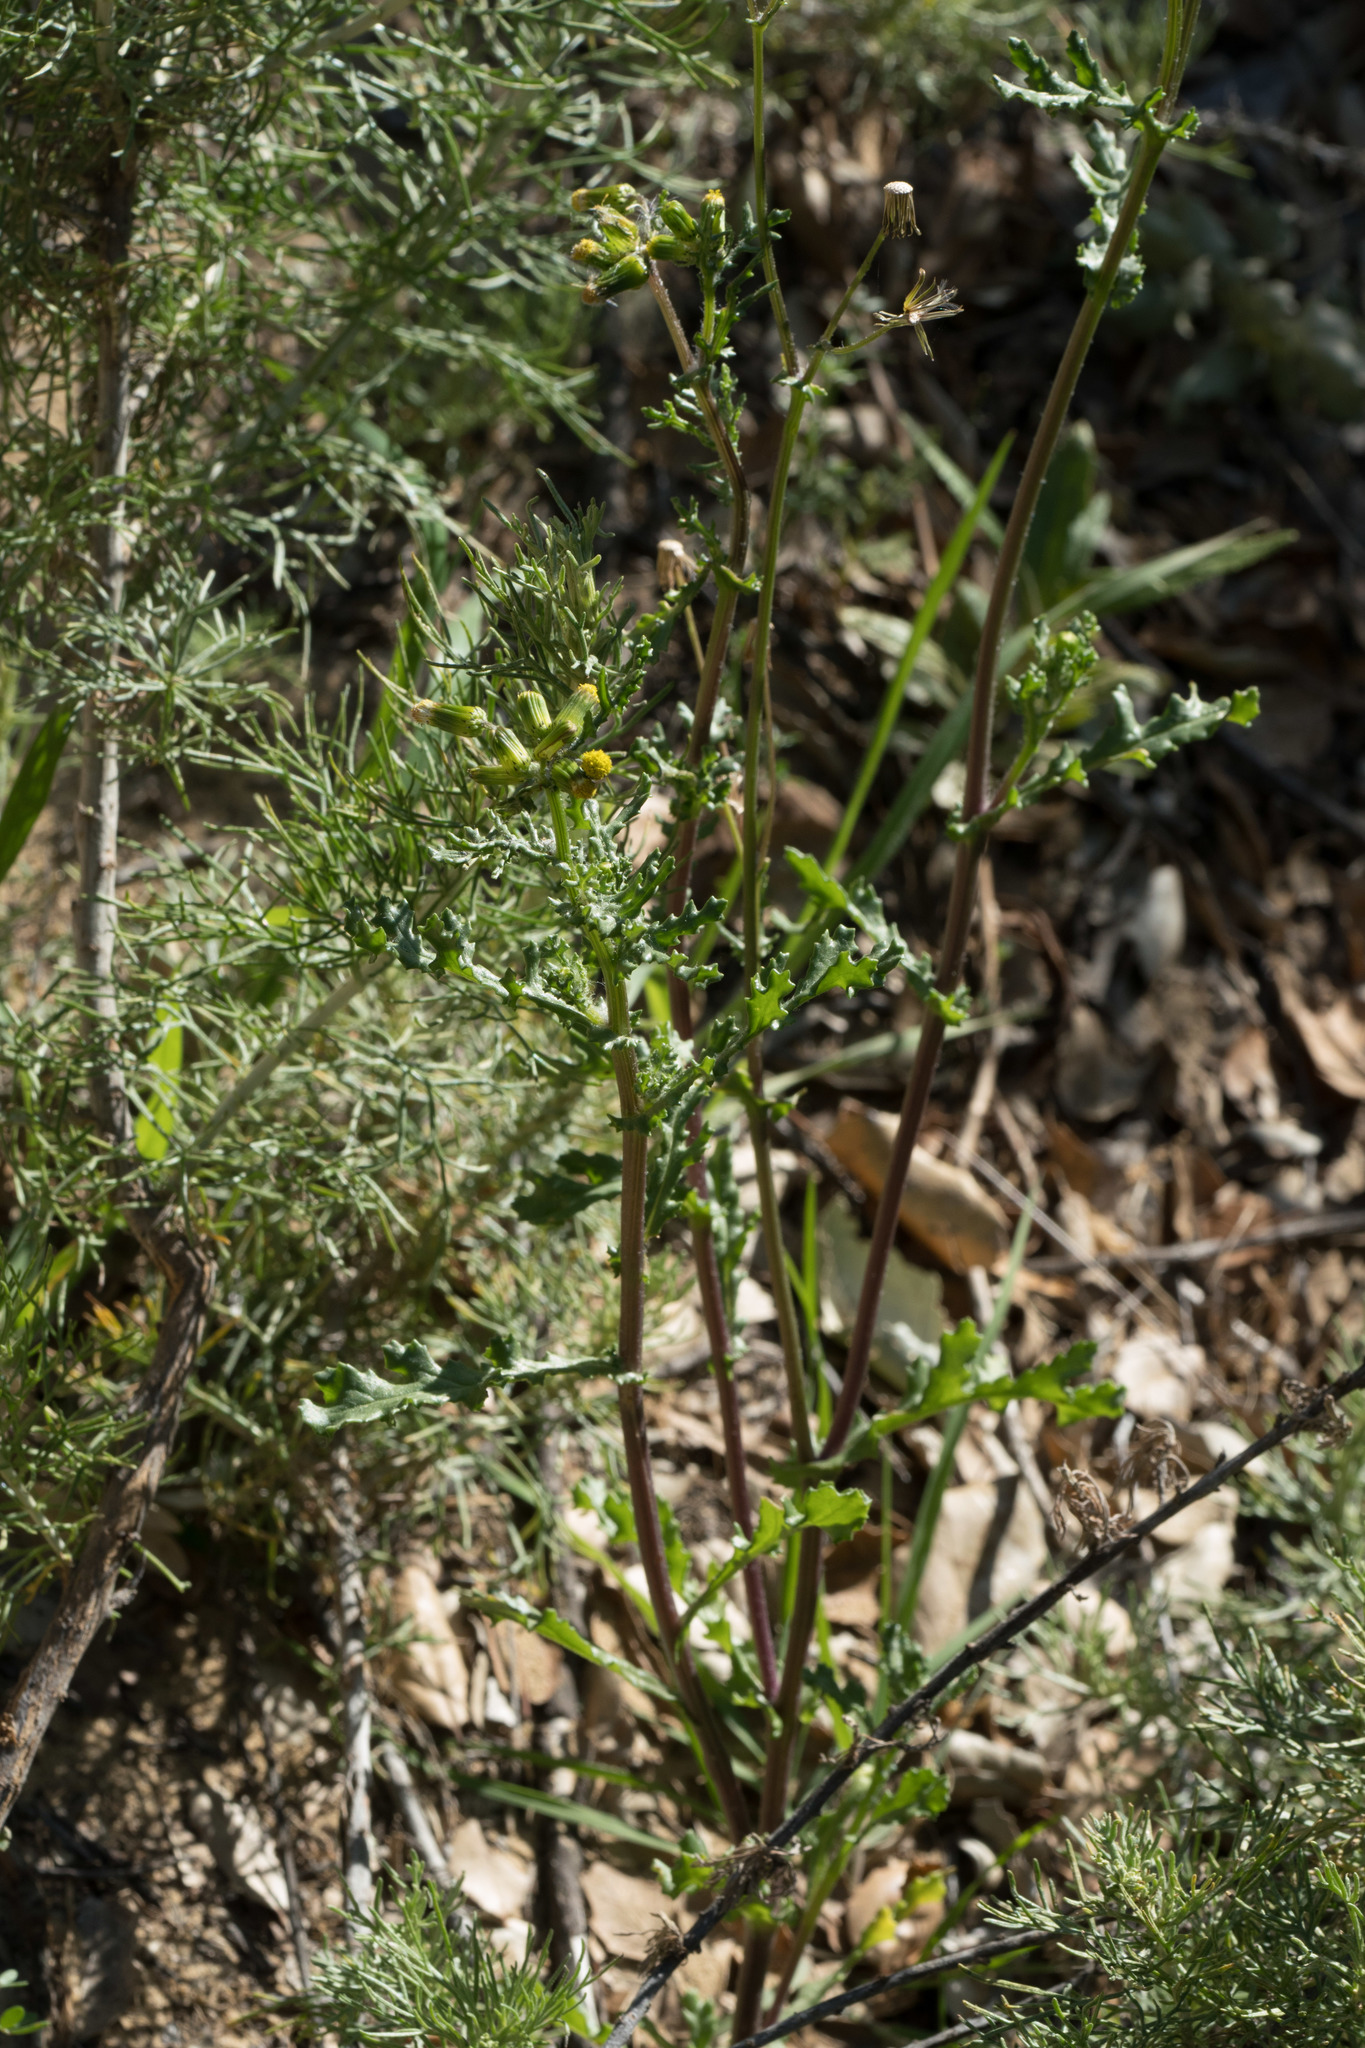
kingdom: Plantae
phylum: Tracheophyta
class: Magnoliopsida
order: Asterales
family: Asteraceae
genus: Senecio
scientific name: Senecio vulgaris
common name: Old-man-in-the-spring
